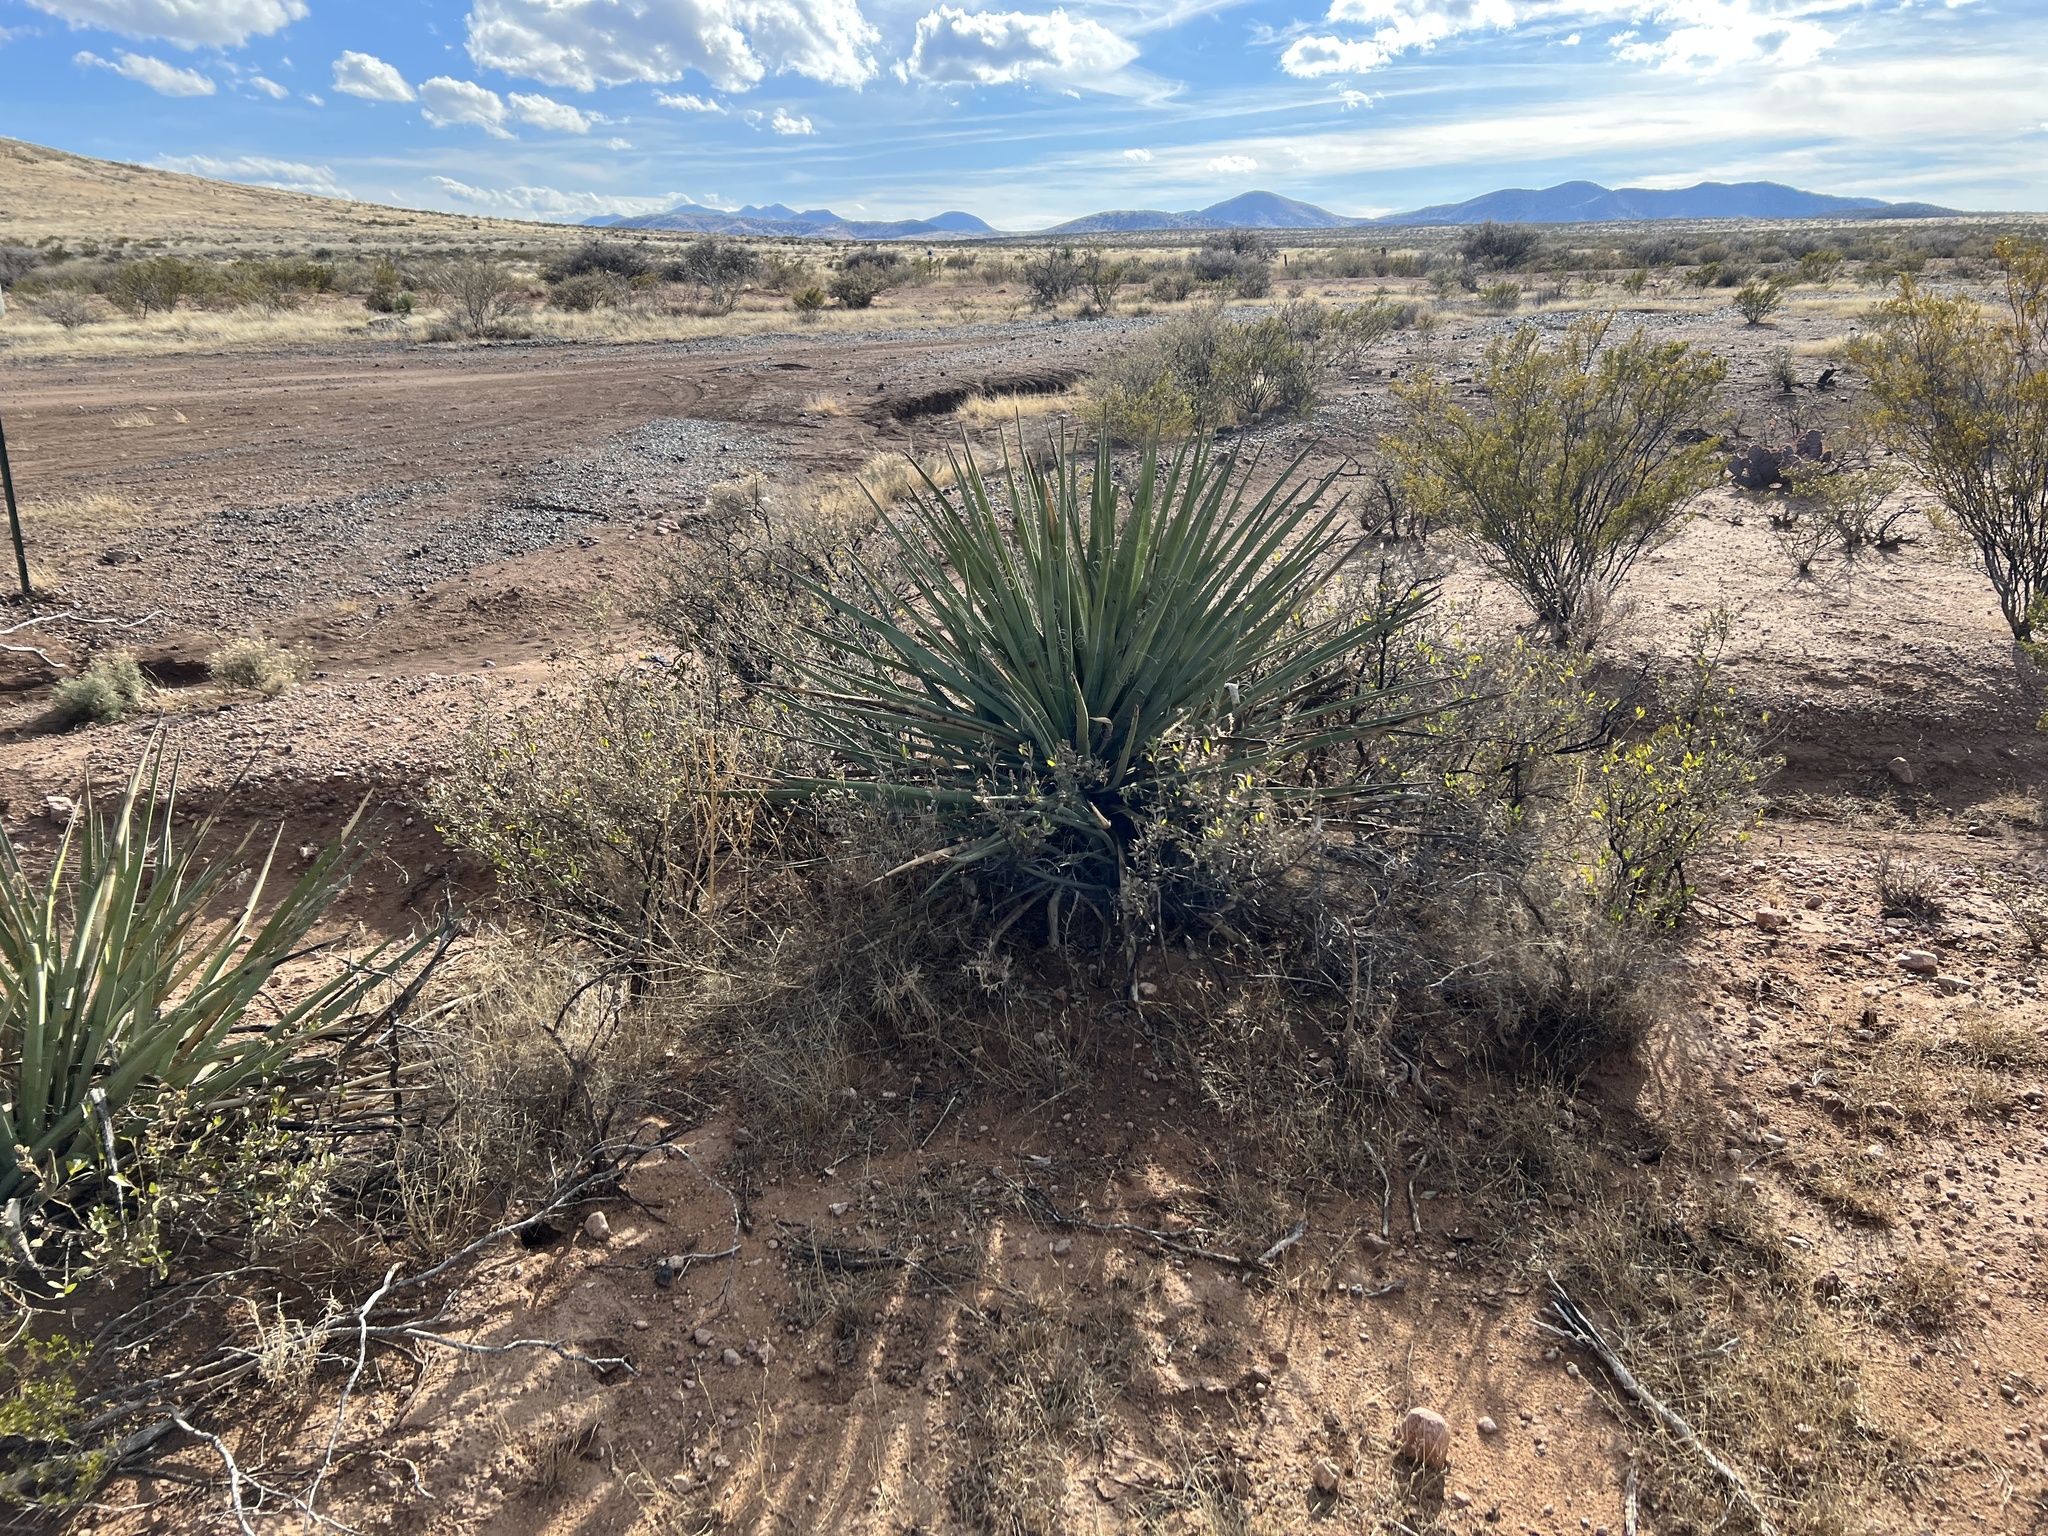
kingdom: Plantae
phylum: Tracheophyta
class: Liliopsida
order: Asparagales
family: Asparagaceae
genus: Yucca
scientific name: Yucca baccata
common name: Banana yucca
